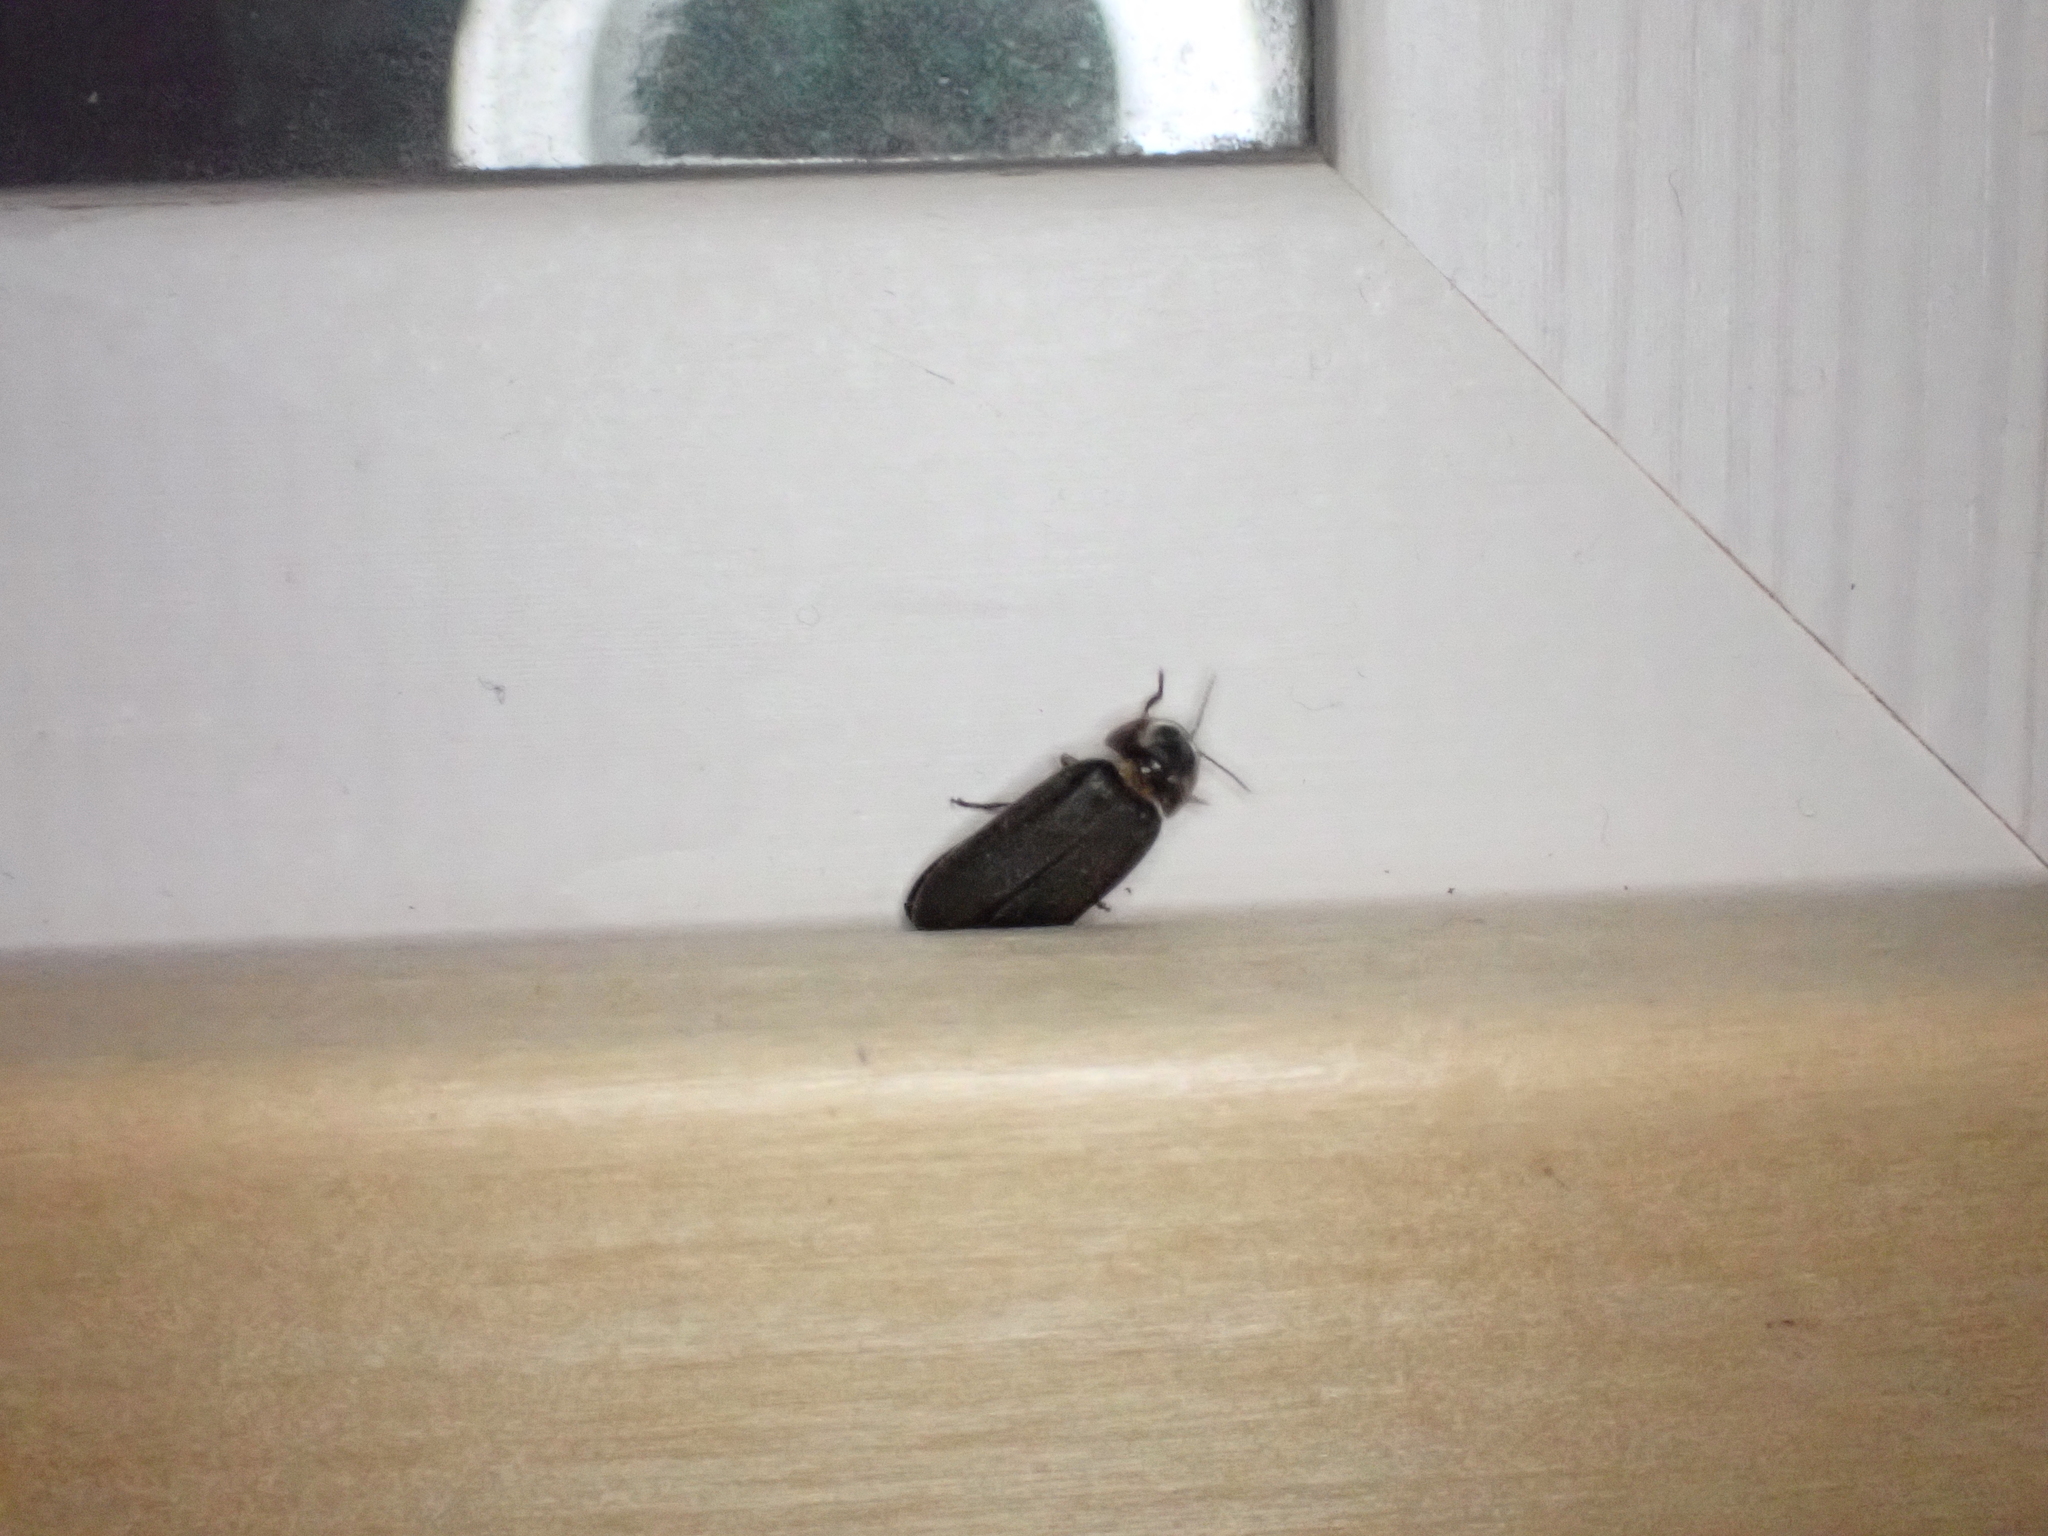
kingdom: Animalia
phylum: Arthropoda
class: Insecta
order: Coleoptera
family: Lampyridae
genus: Lamprohiza
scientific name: Lamprohiza splendidula
